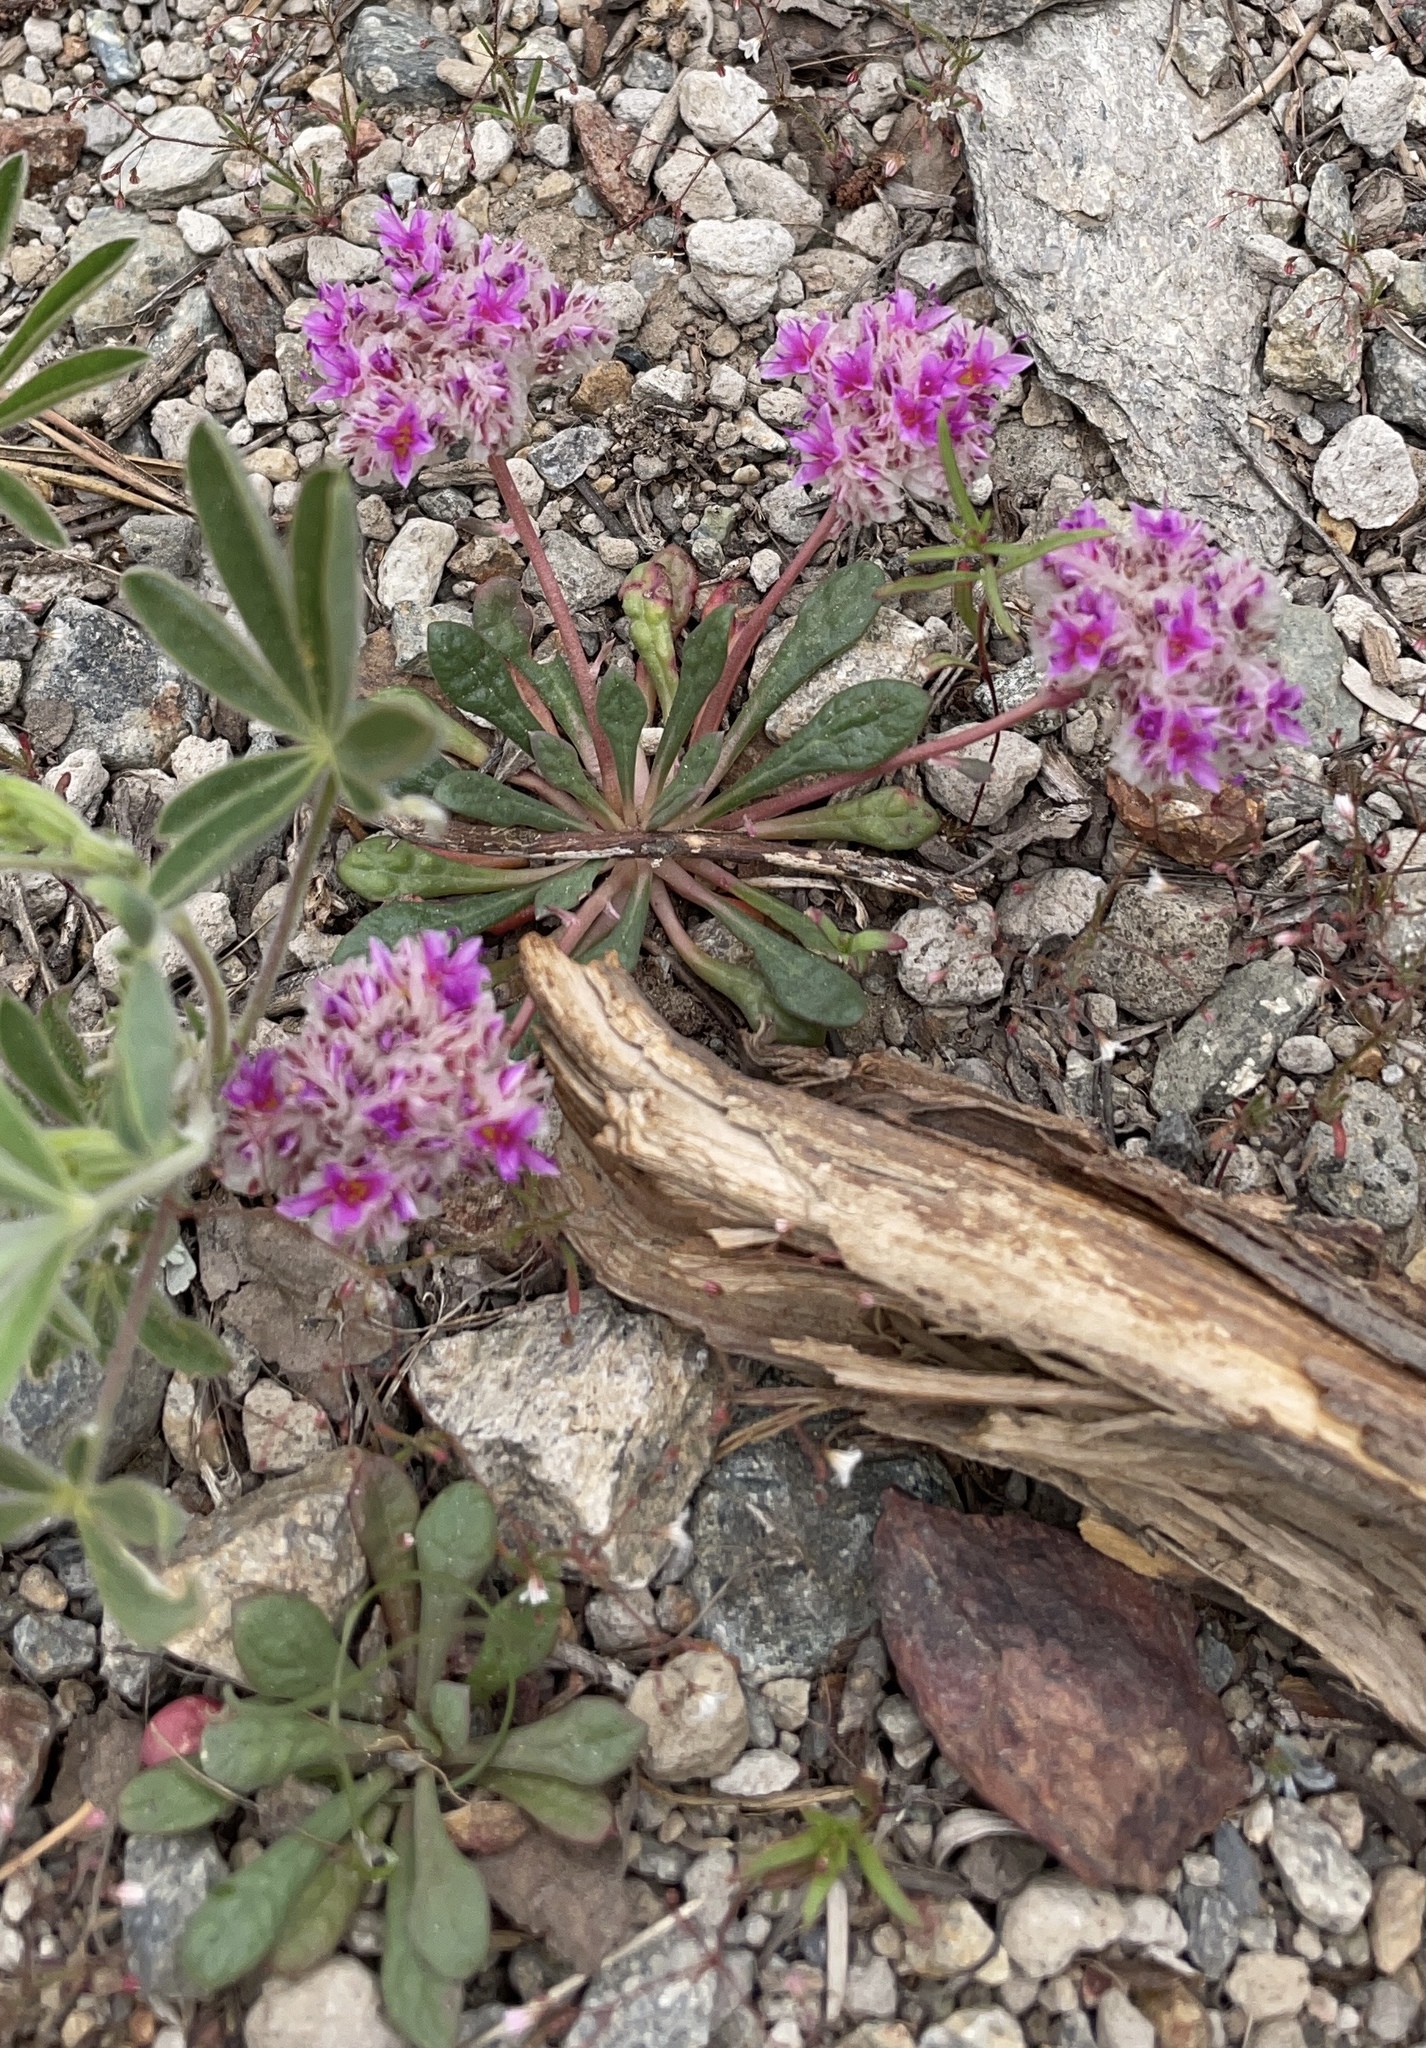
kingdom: Plantae
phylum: Tracheophyta
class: Magnoliopsida
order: Caryophyllales
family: Montiaceae
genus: Calyptridium
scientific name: Calyptridium monospermum
